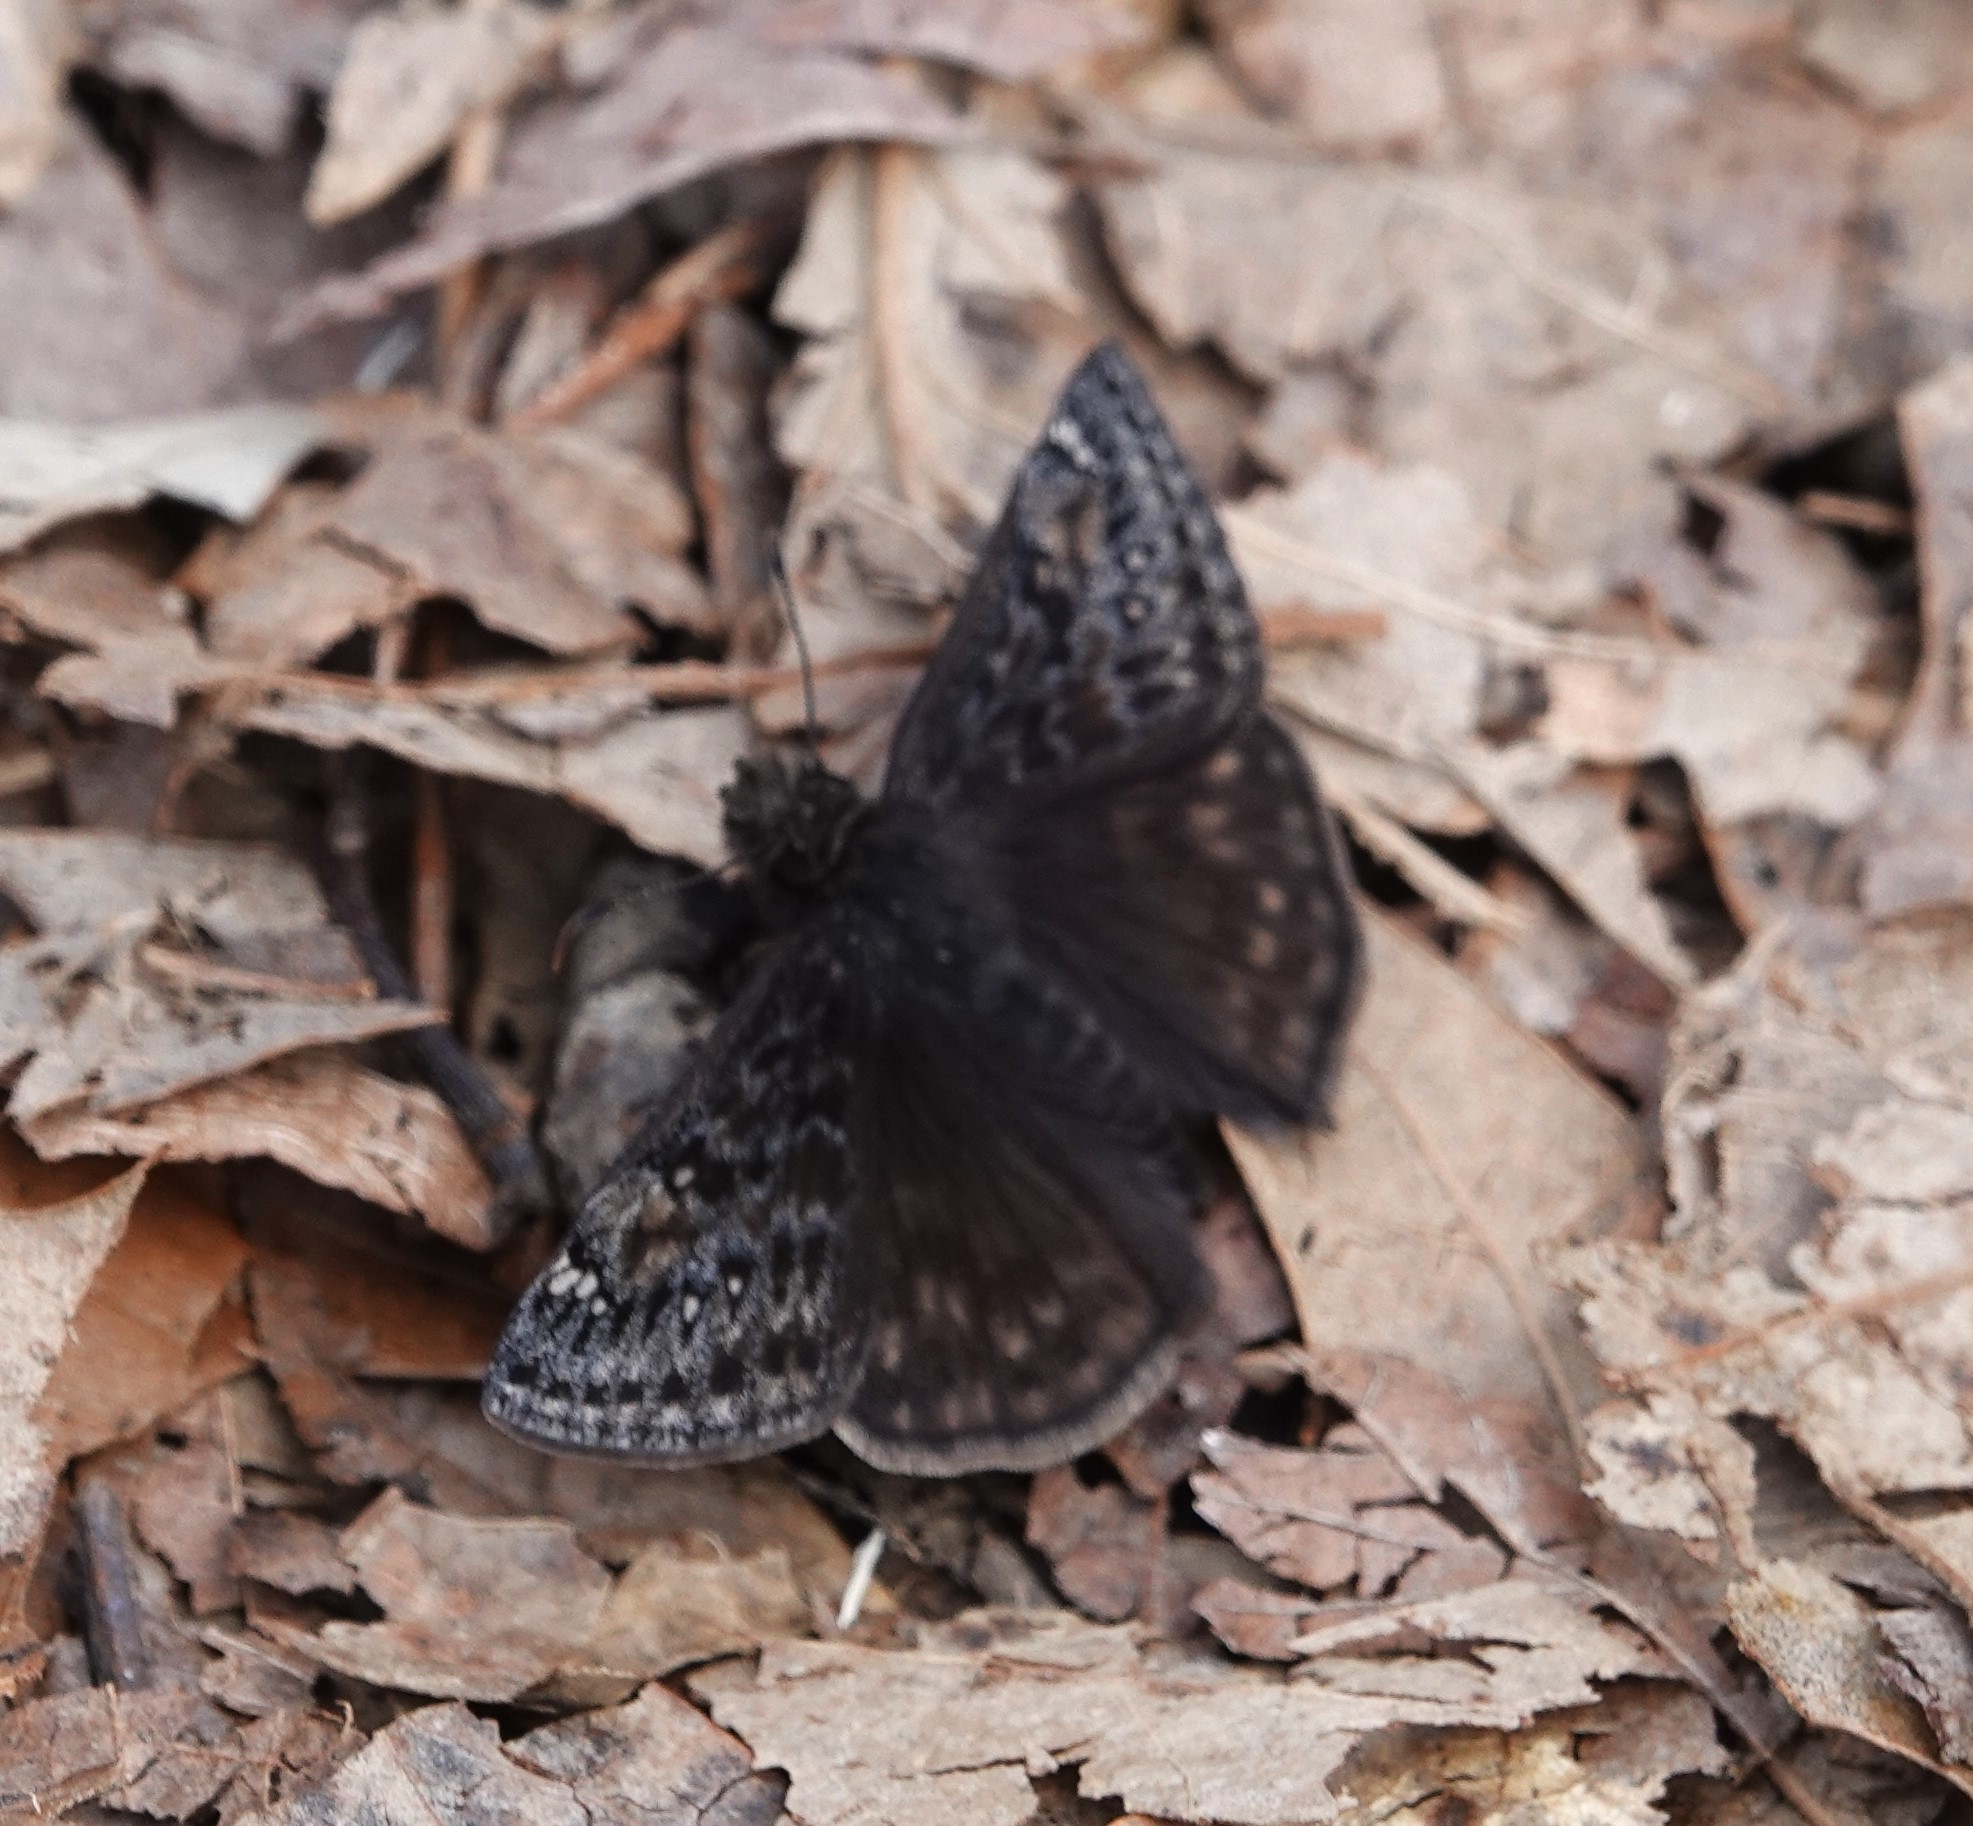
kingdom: Animalia
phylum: Arthropoda
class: Insecta
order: Lepidoptera
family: Hesperiidae
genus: Erynnis
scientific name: Erynnis juvenalis
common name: Juvenal's duskywing
